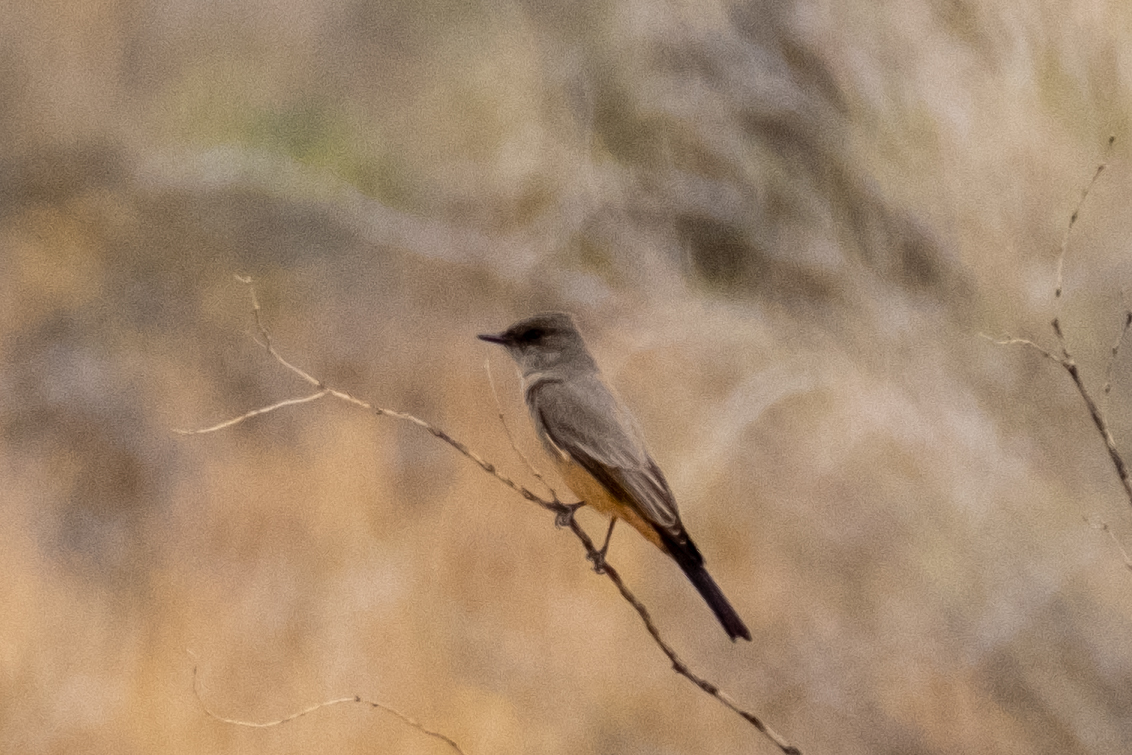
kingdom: Animalia
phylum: Chordata
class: Aves
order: Passeriformes
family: Tyrannidae
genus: Sayornis
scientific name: Sayornis saya
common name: Say's phoebe
